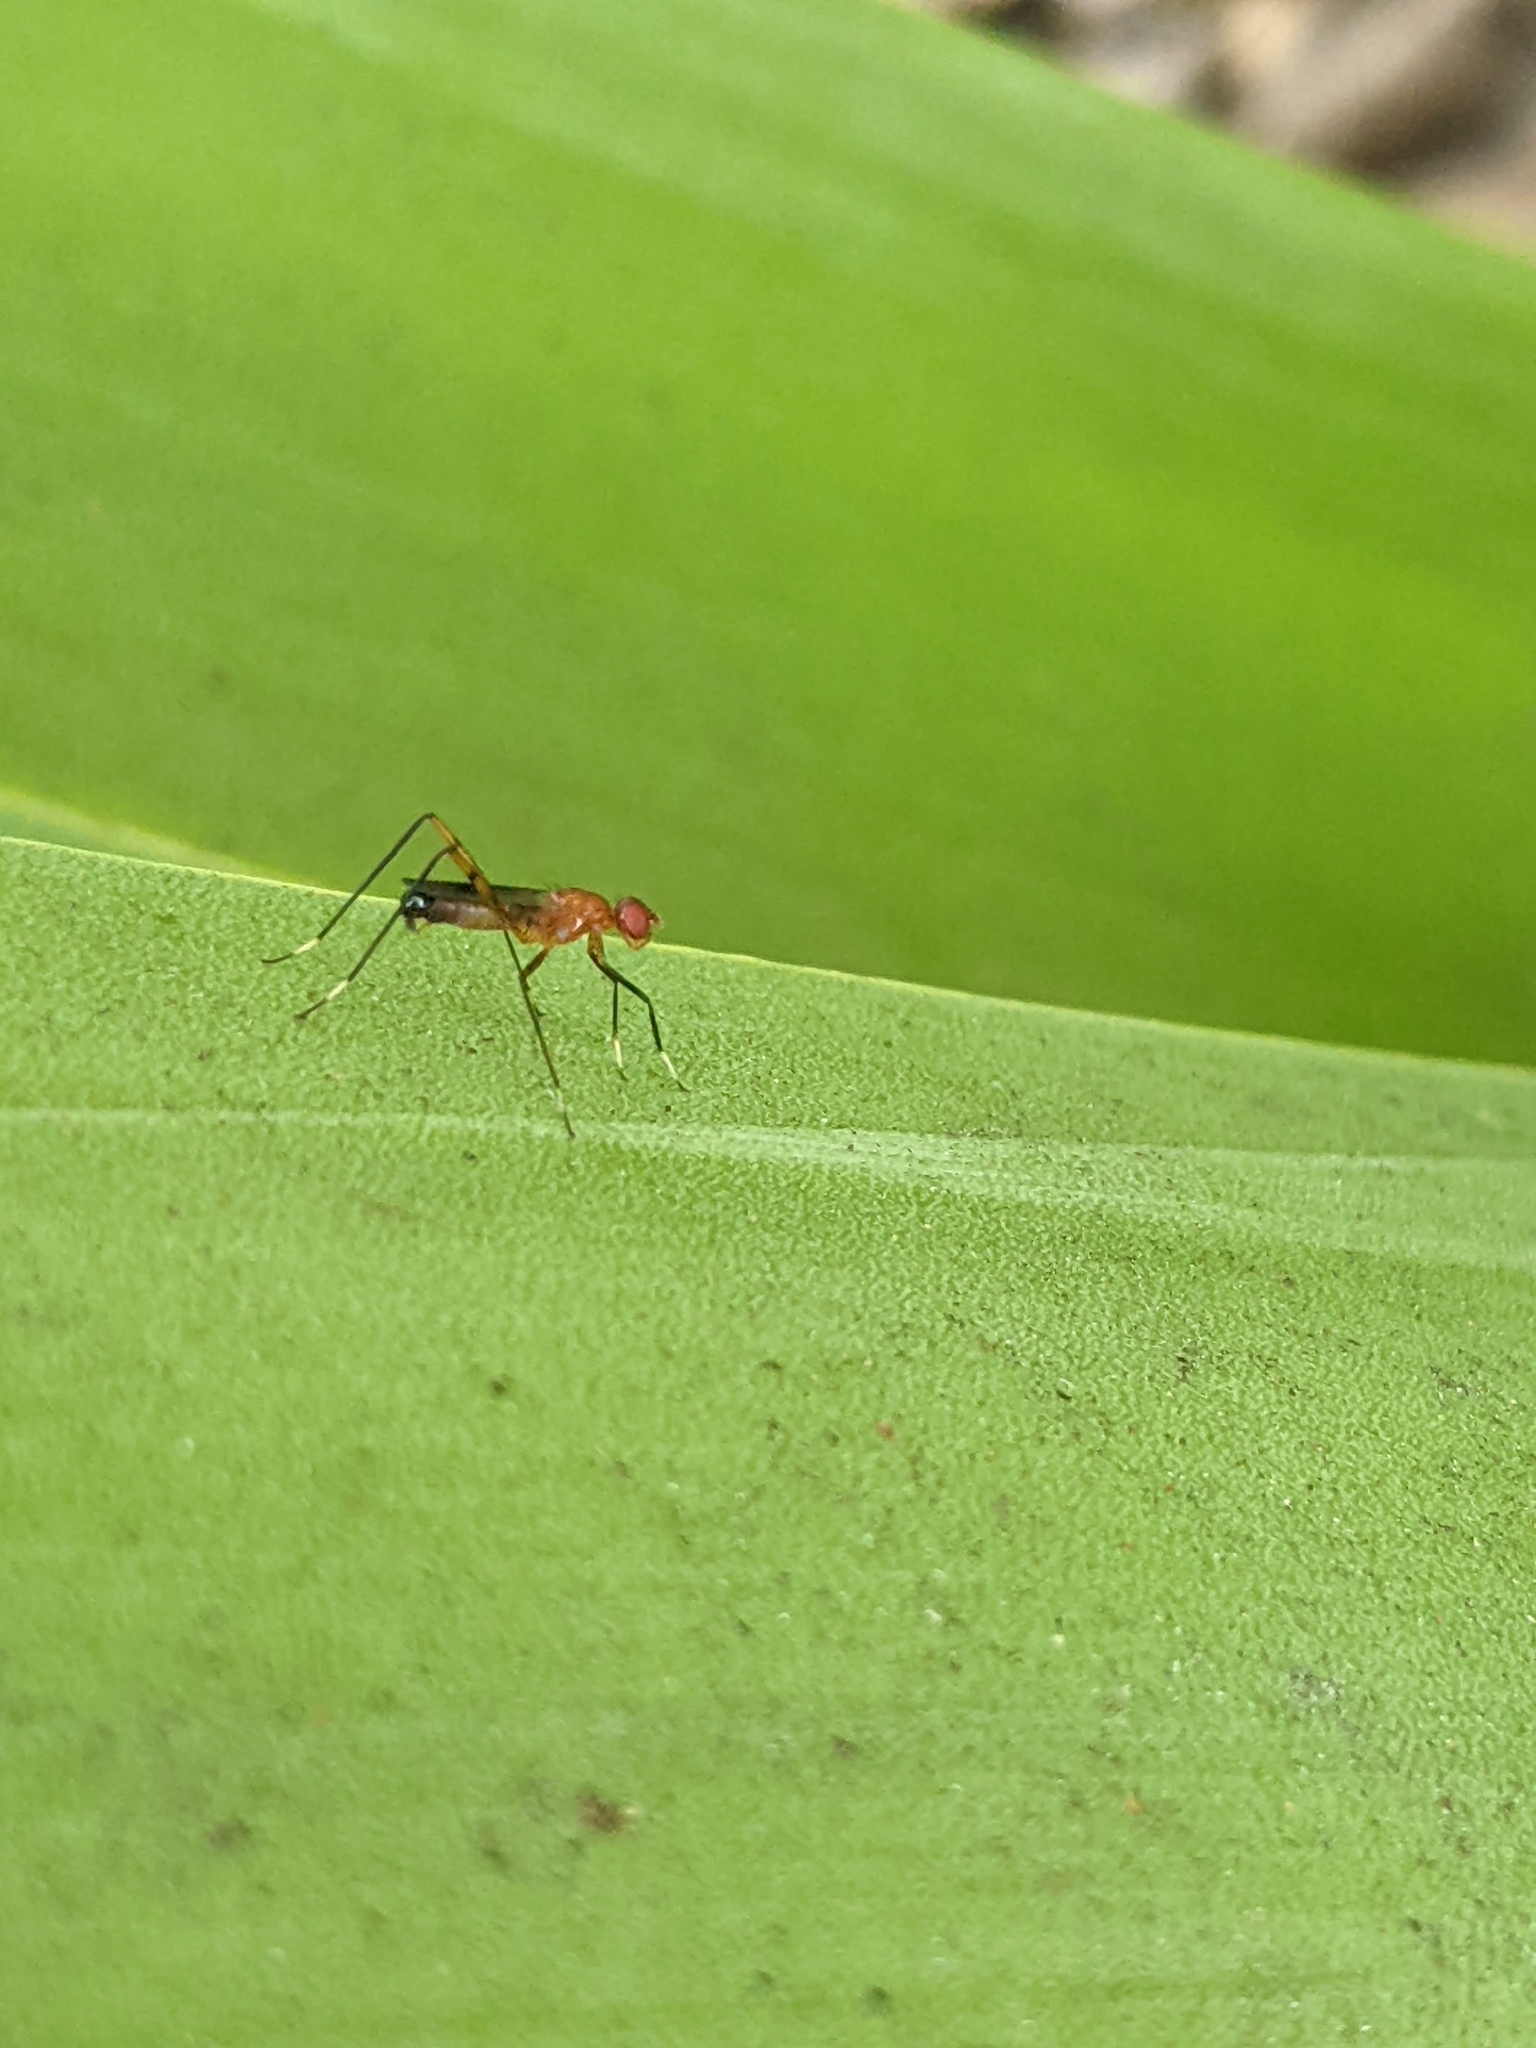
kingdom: Animalia
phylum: Arthropoda
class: Insecta
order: Diptera
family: Micropezidae
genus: Grallipeza
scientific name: Grallipeza nebulosa
